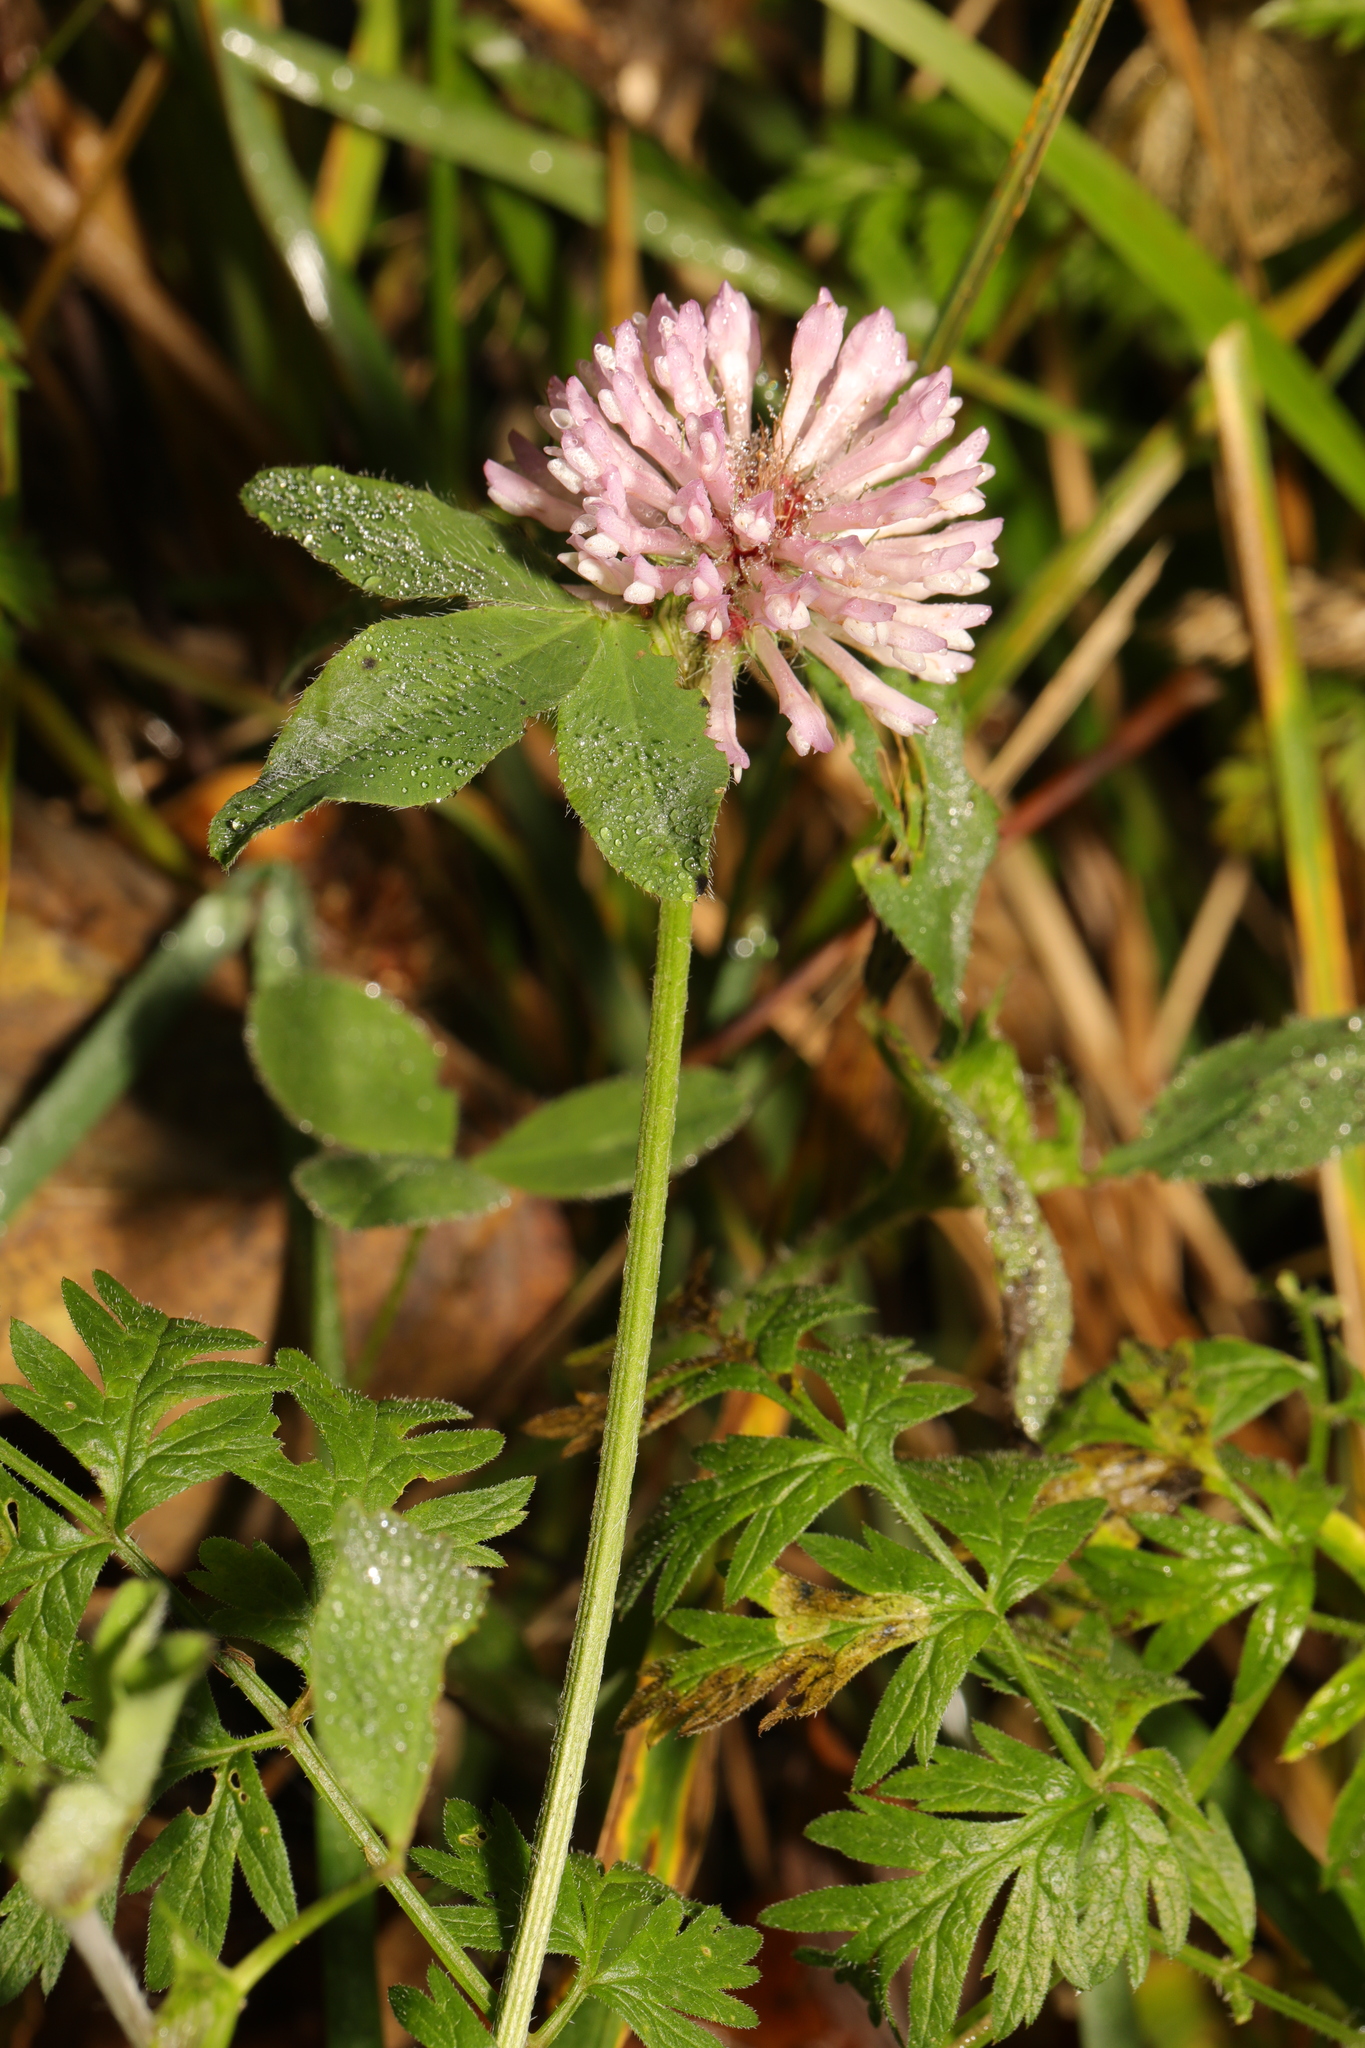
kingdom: Plantae
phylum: Tracheophyta
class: Magnoliopsida
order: Fabales
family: Fabaceae
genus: Trifolium
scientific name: Trifolium pratense
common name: Red clover
